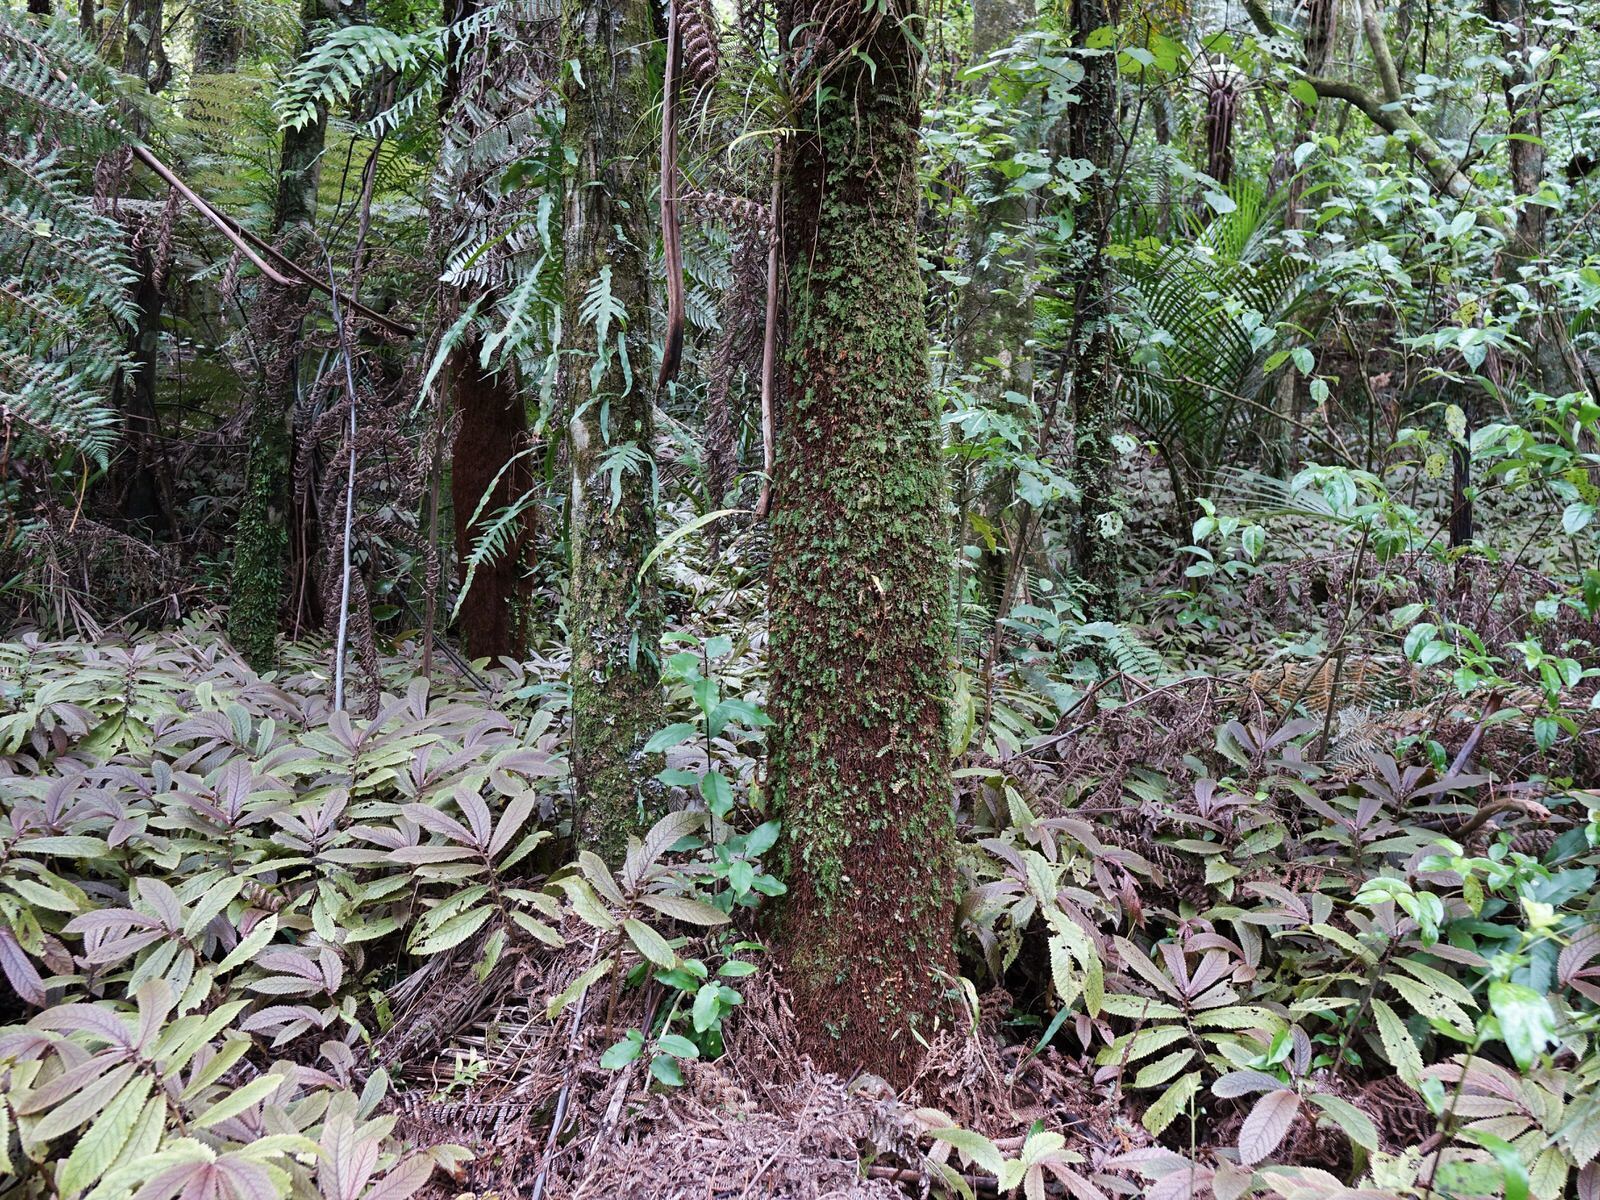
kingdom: Plantae
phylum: Tracheophyta
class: Polypodiopsida
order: Hymenophyllales
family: Hymenophyllaceae
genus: Polyphlebium
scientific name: Polyphlebium venosum
